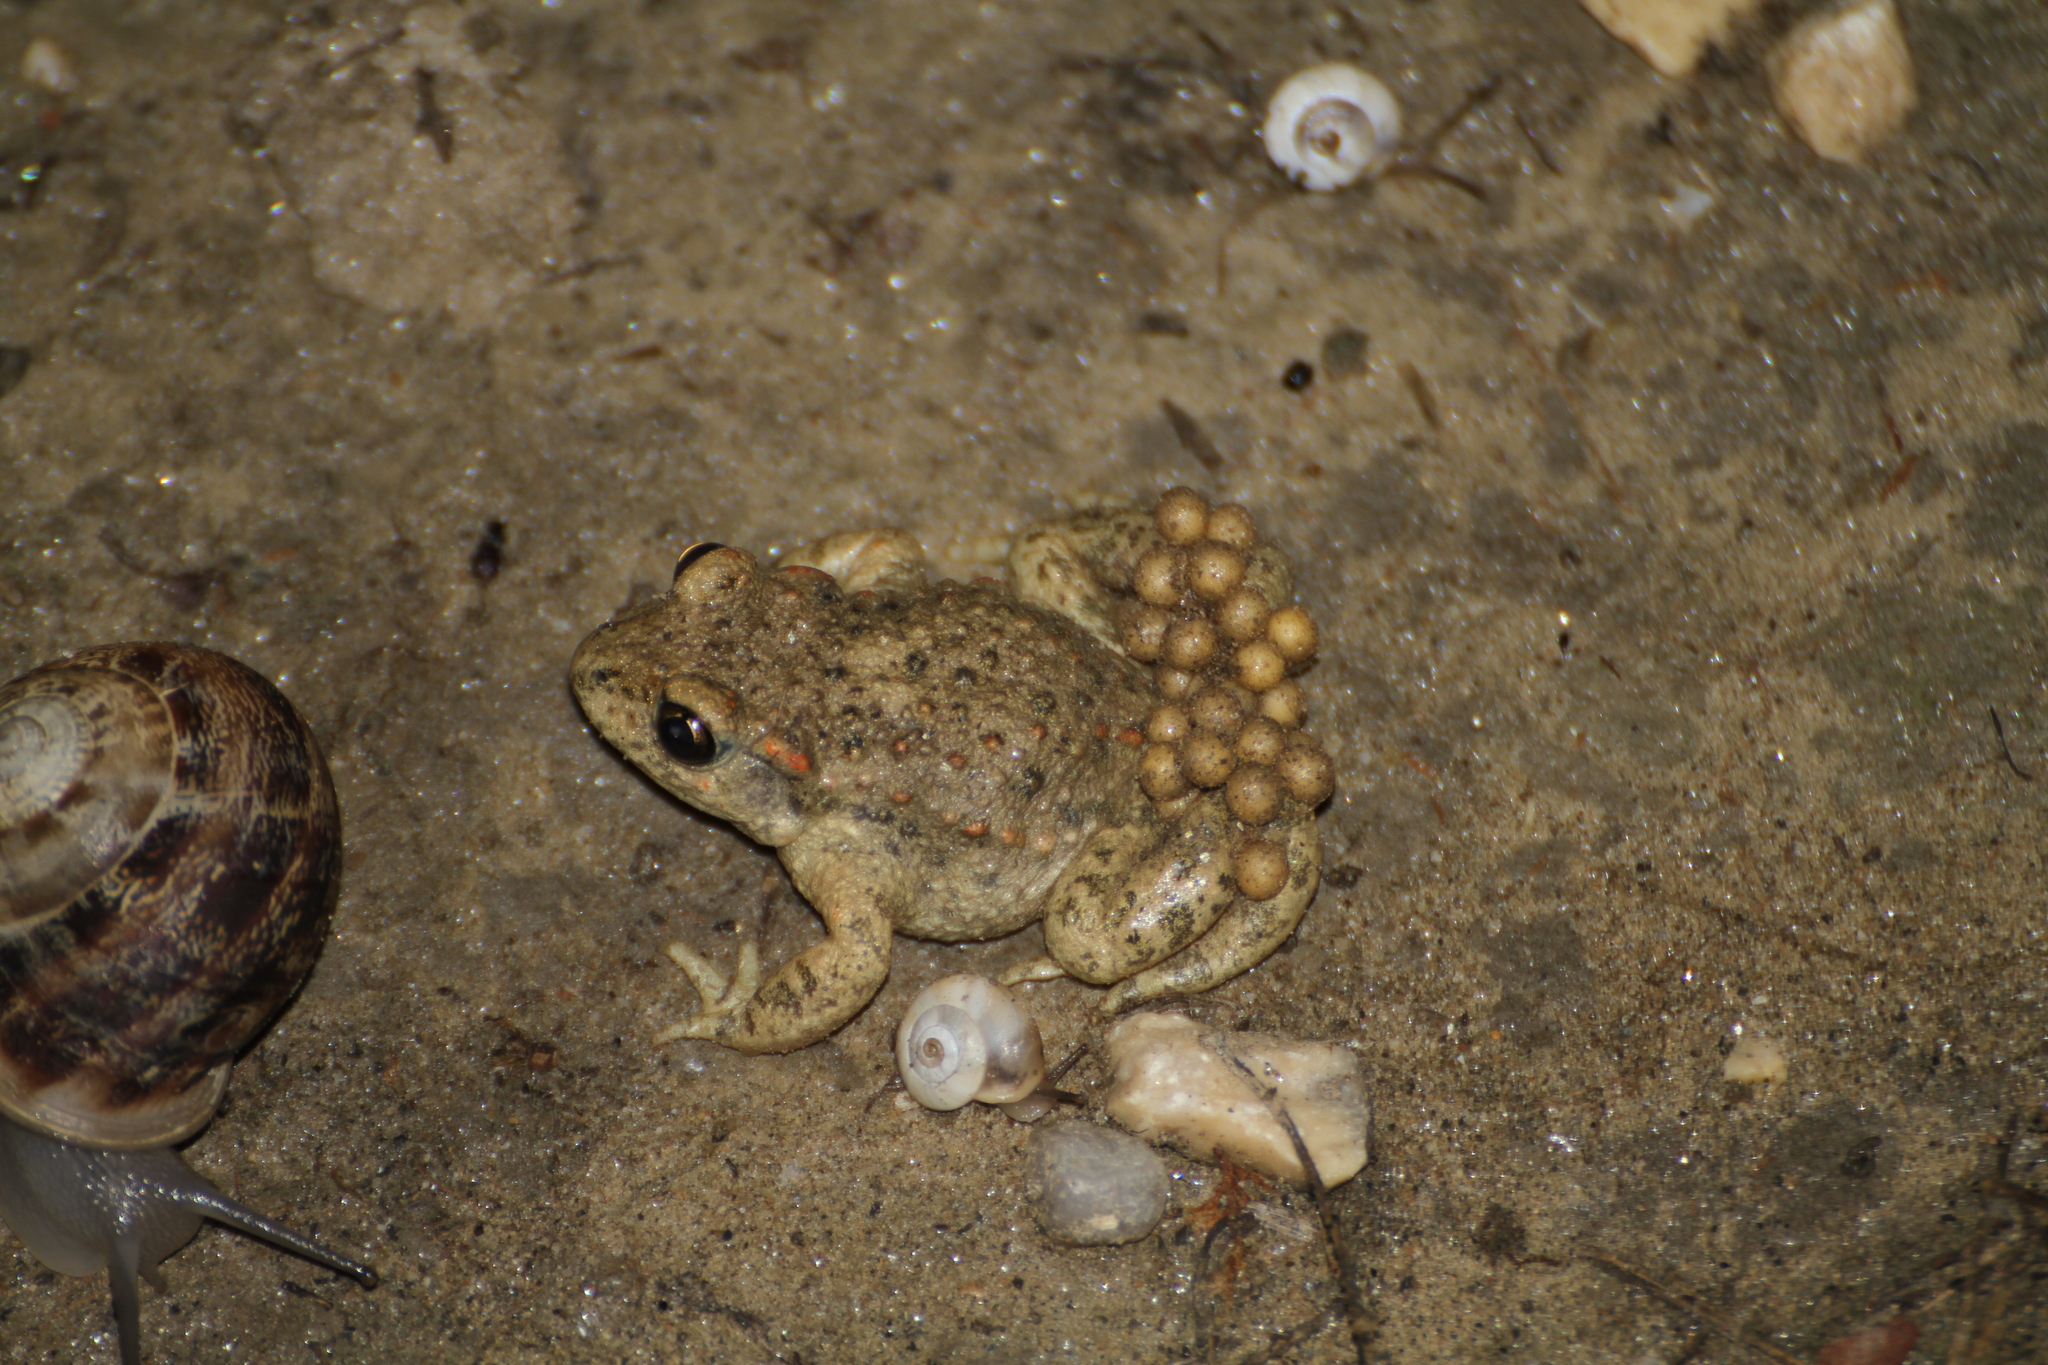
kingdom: Animalia
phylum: Chordata
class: Amphibia
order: Anura
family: Alytidae
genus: Alytes
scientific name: Alytes obstetricans
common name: Midwife toad
